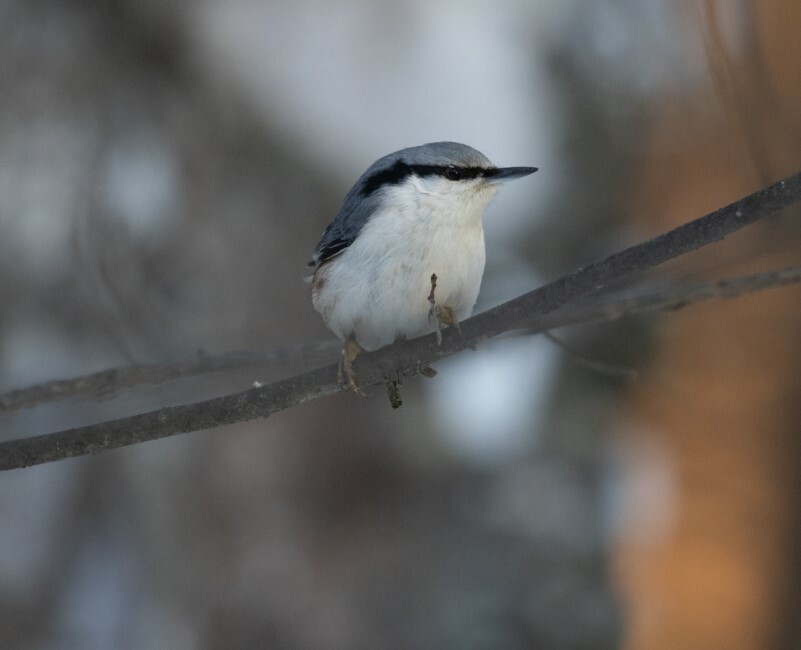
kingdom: Animalia
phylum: Chordata
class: Aves
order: Passeriformes
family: Sittidae
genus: Sitta
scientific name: Sitta europaea
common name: Eurasian nuthatch
